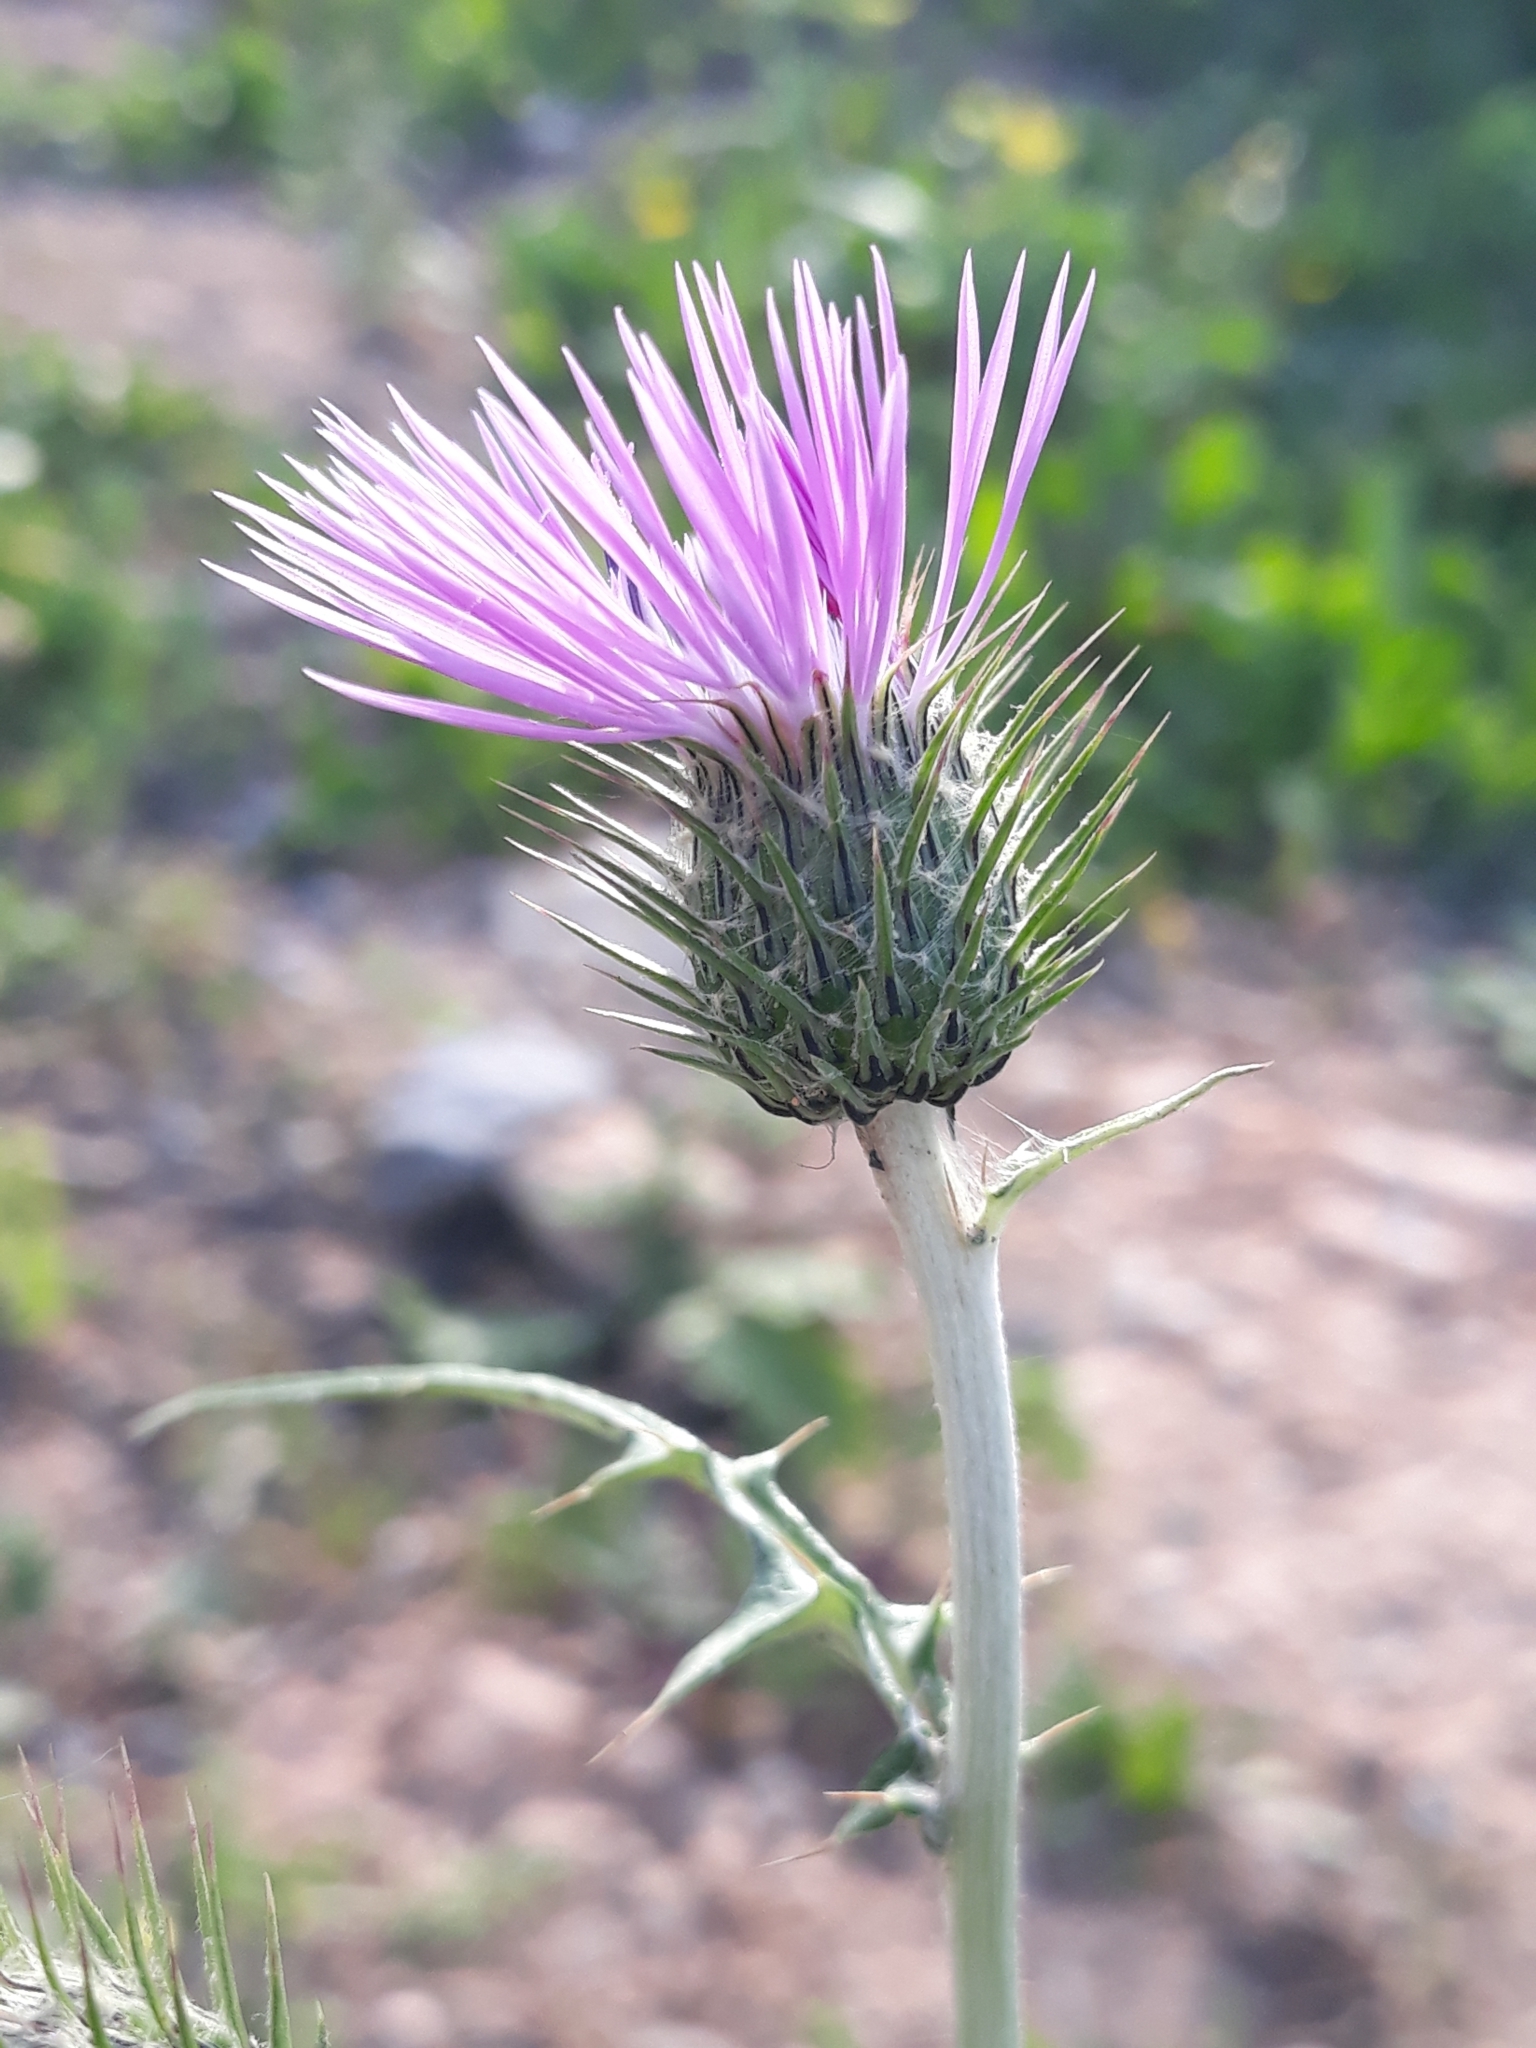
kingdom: Plantae
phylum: Tracheophyta
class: Magnoliopsida
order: Asterales
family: Asteraceae
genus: Galactites
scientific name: Galactites tomentosa
